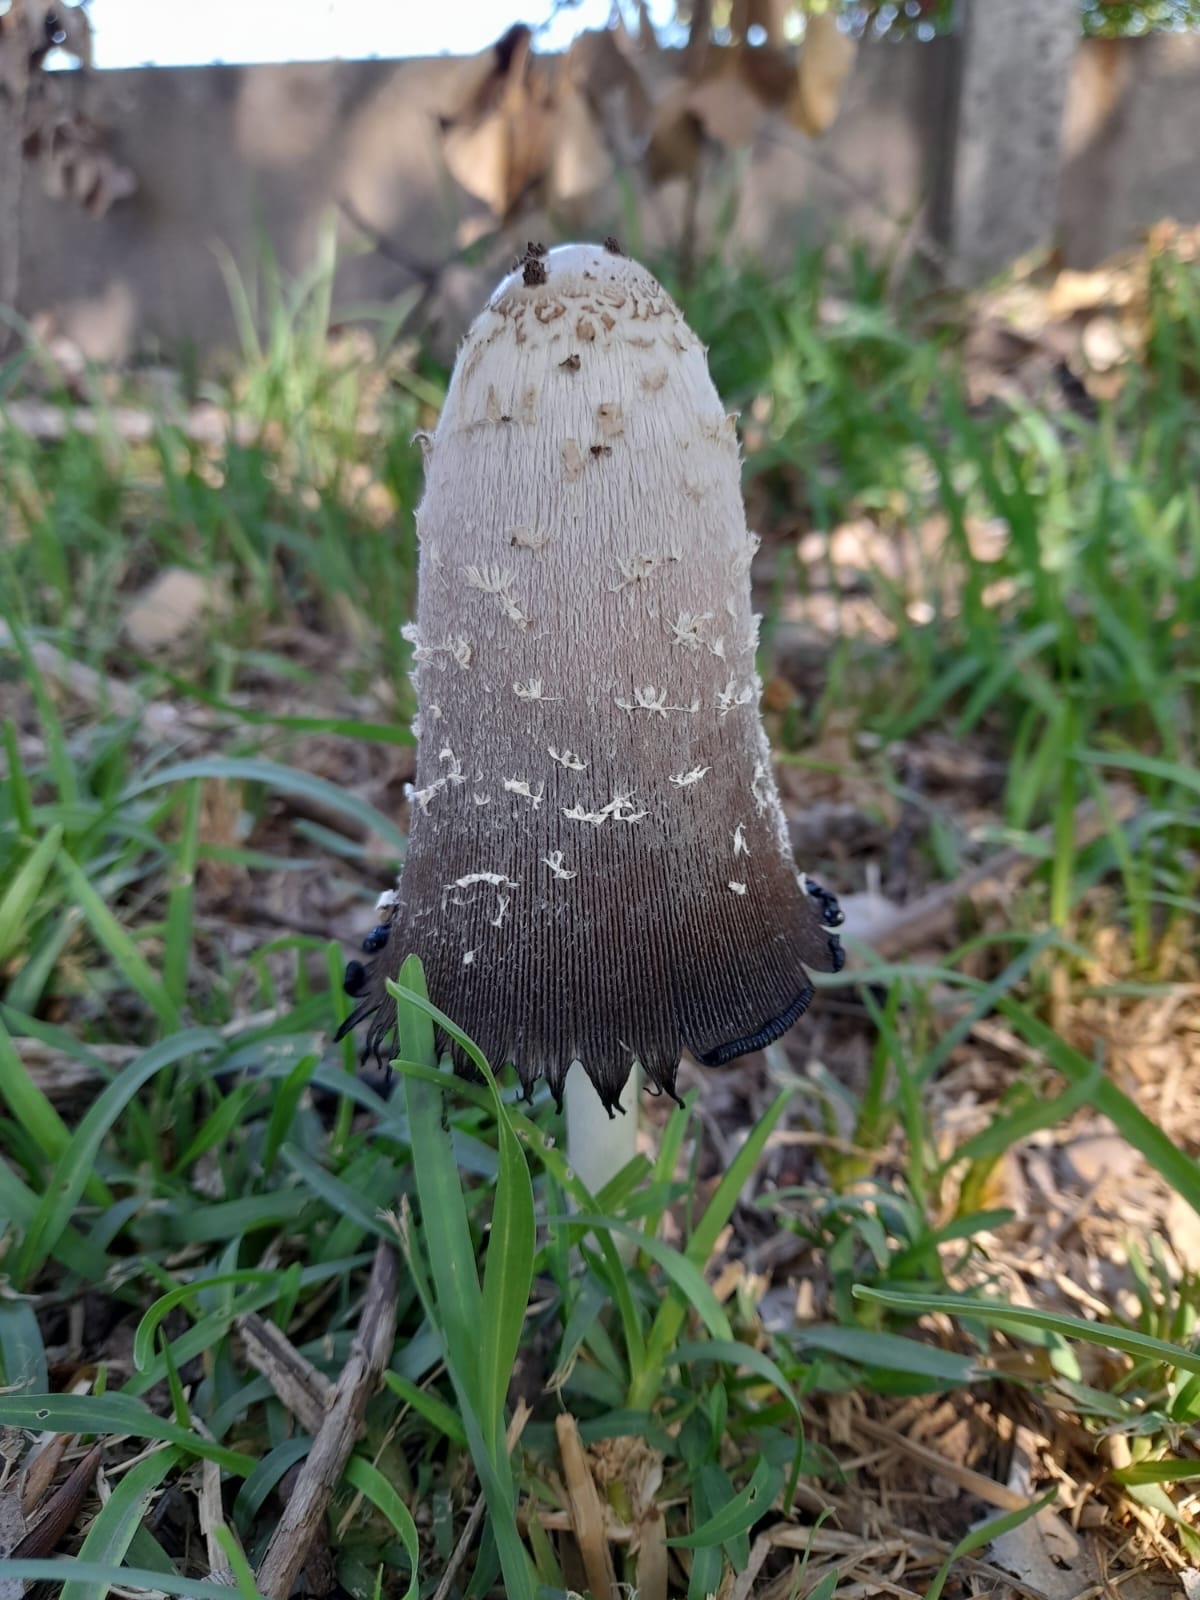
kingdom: Fungi
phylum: Basidiomycota
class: Agaricomycetes
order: Agaricales
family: Agaricaceae
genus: Coprinus
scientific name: Coprinus comatus
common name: Lawyer's wig
